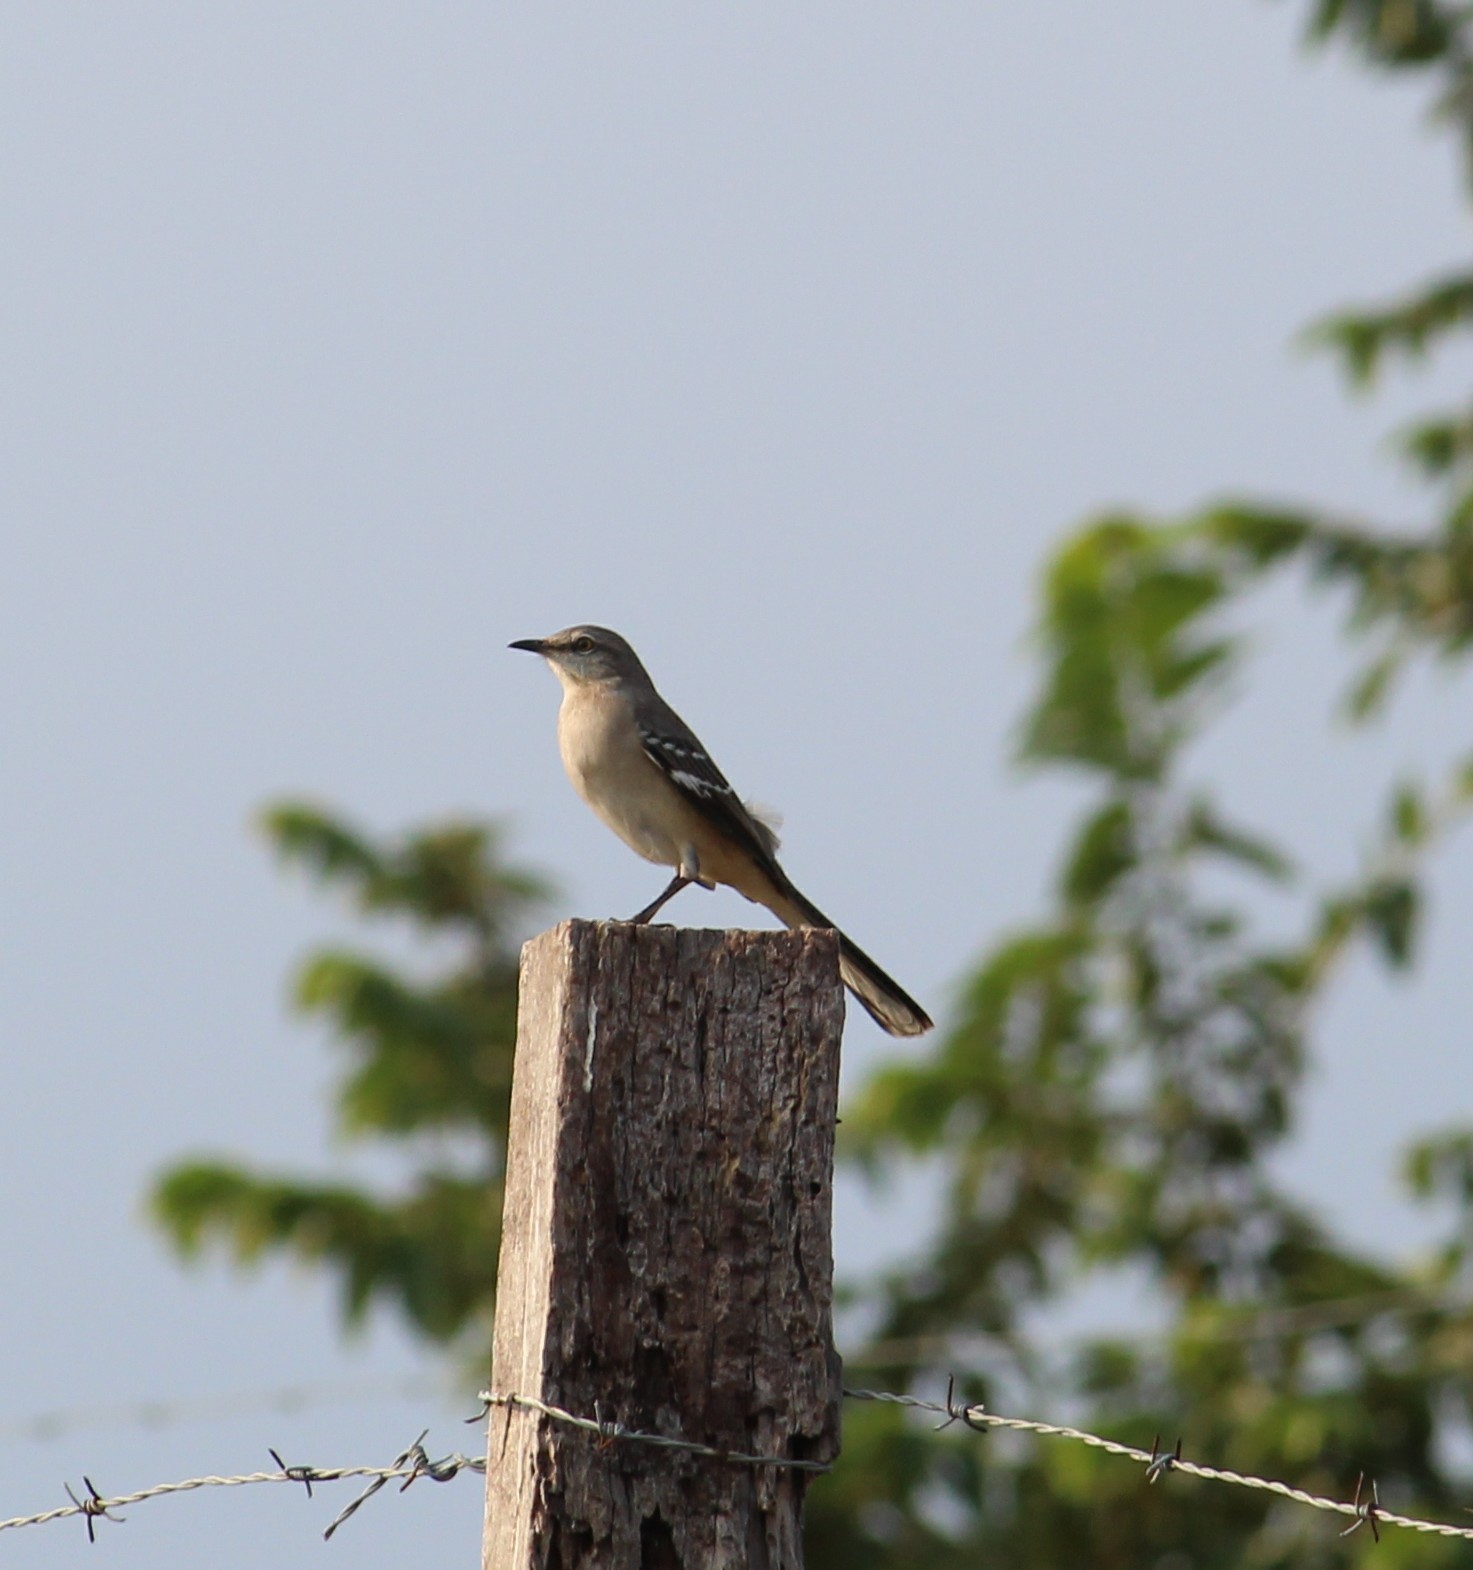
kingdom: Animalia
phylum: Chordata
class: Aves
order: Passeriformes
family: Mimidae
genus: Mimus
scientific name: Mimus polyglottos
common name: Northern mockingbird
